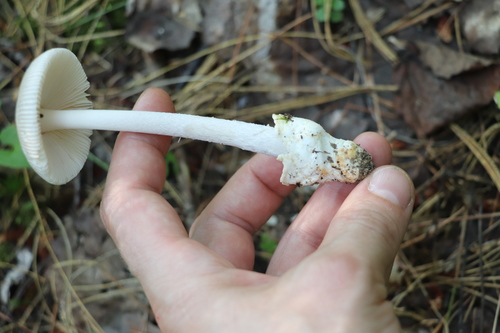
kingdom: Fungi
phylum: Basidiomycota
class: Agaricomycetes
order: Agaricales
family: Amanitaceae
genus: Amanita
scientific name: Amanita
